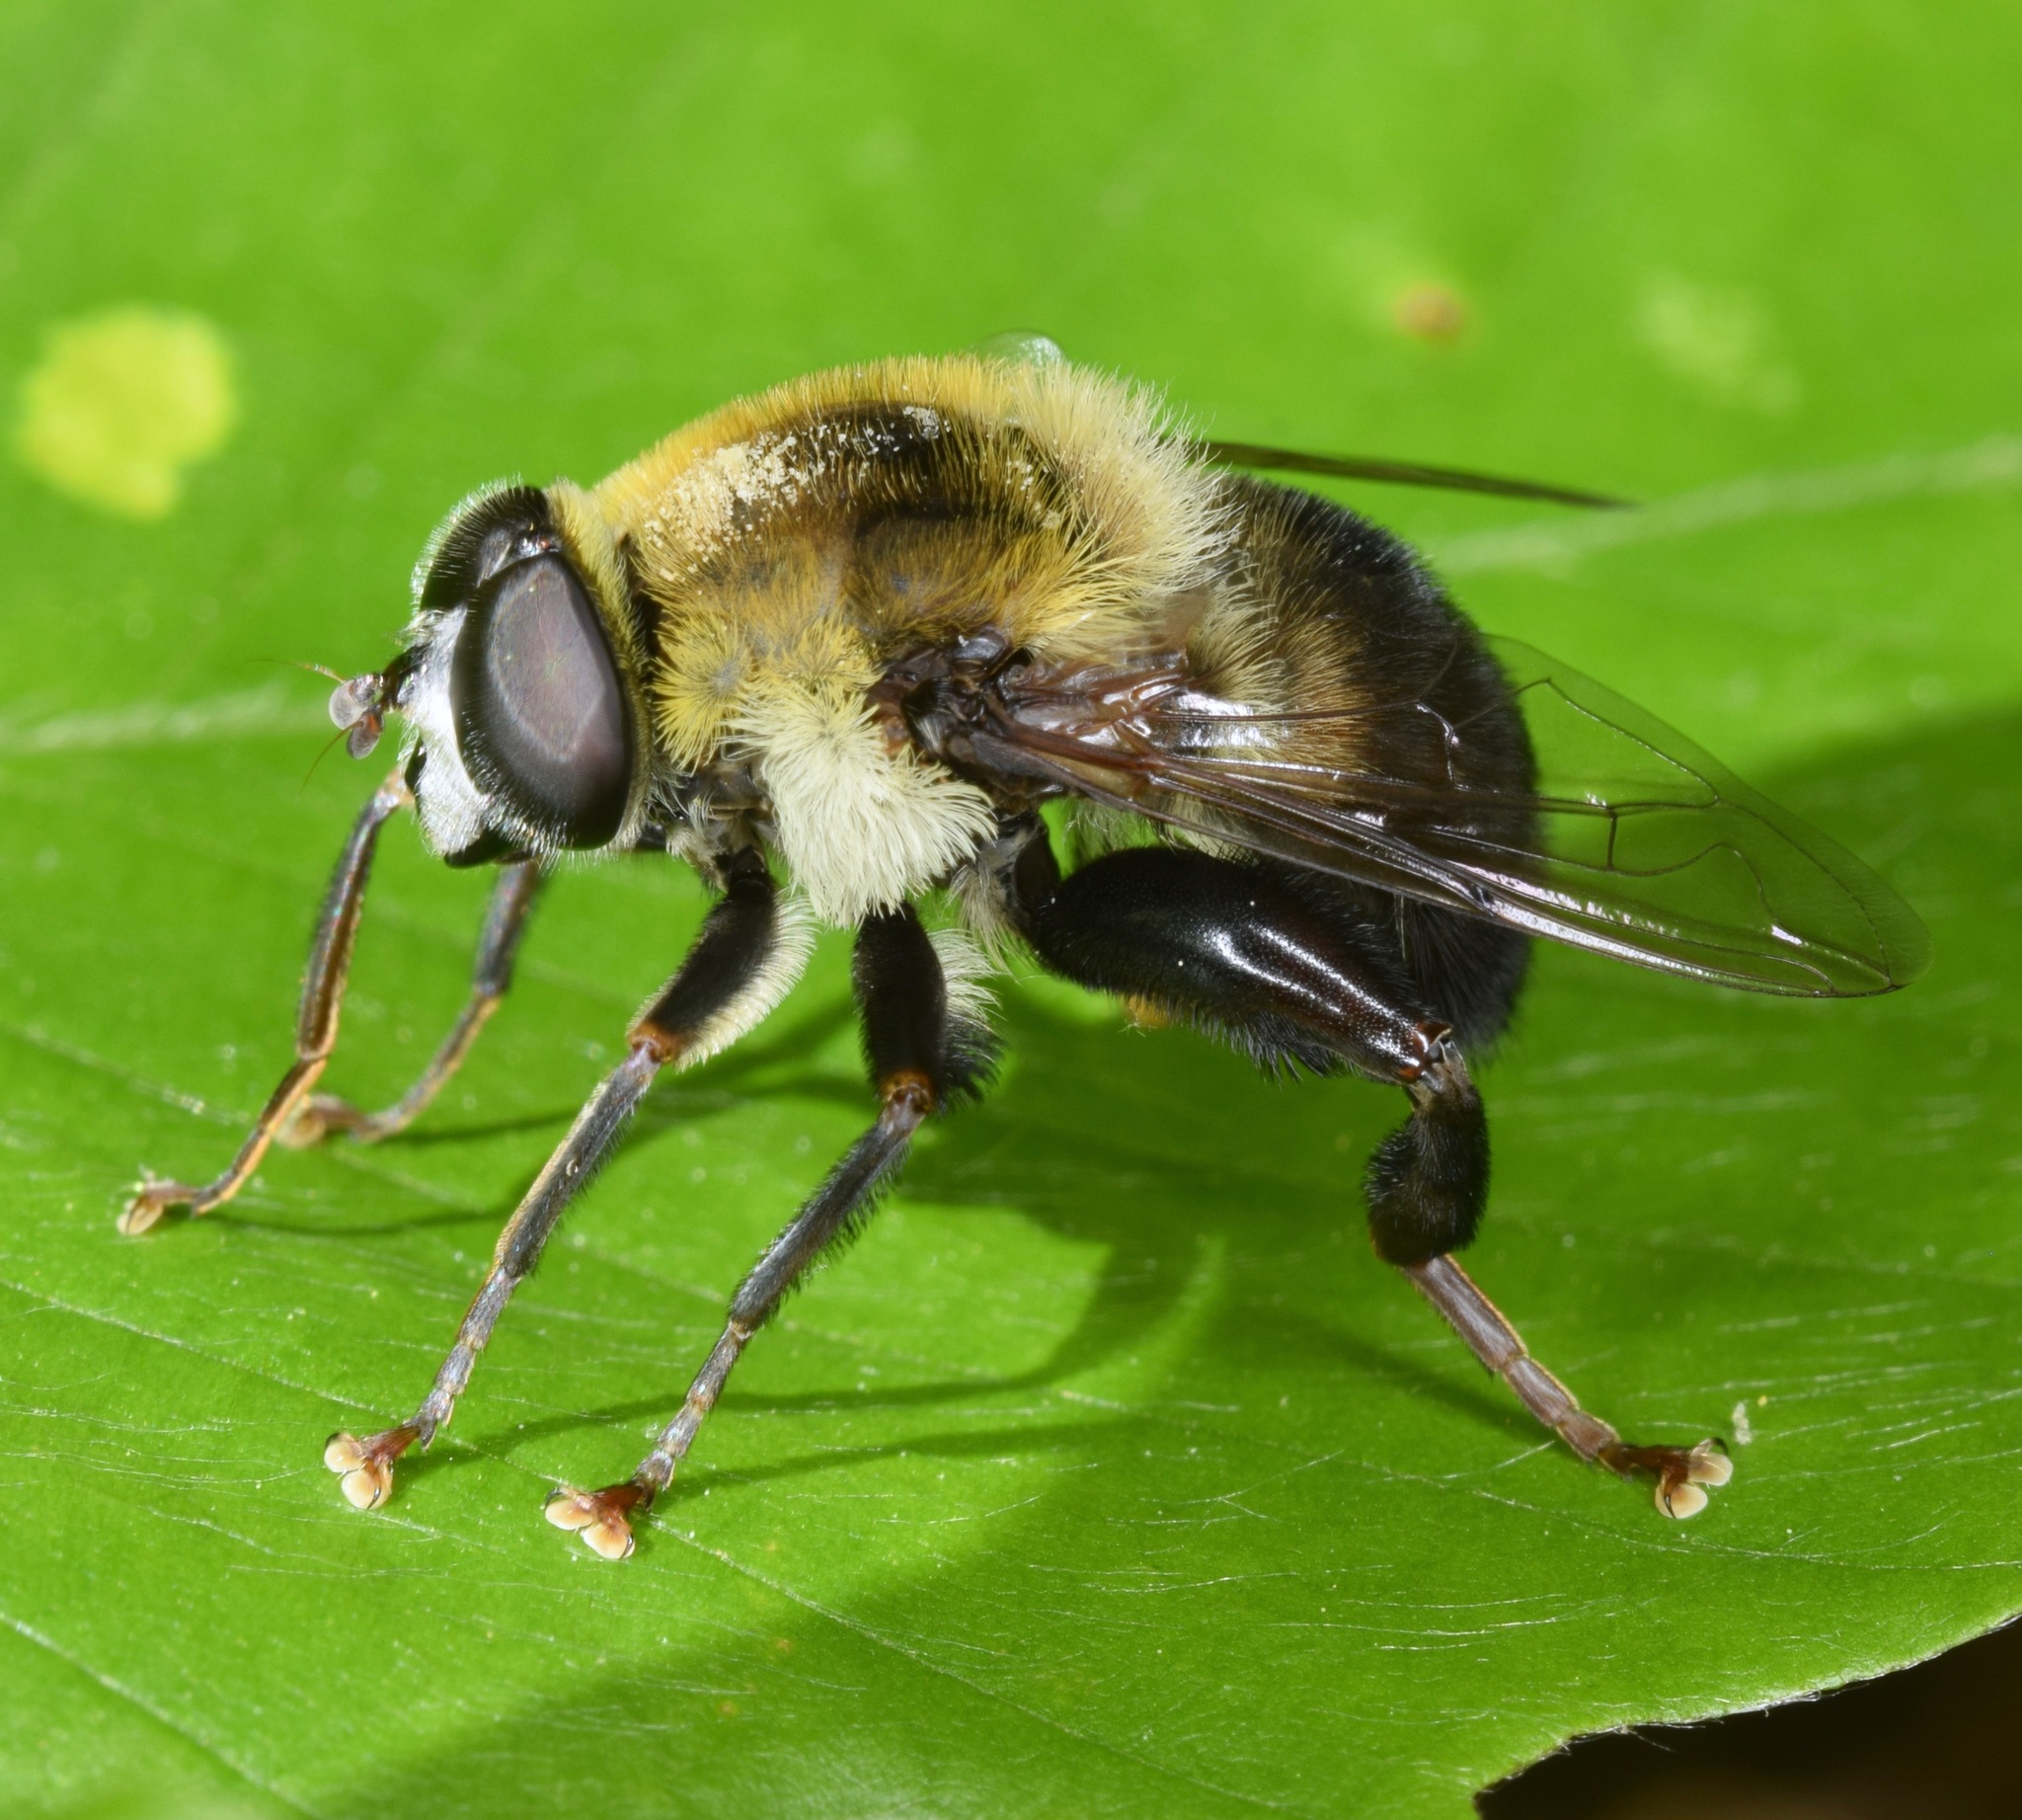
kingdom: Animalia
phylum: Arthropoda
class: Insecta
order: Diptera
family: Syrphidae
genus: Imatisma
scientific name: Imatisma posticata
